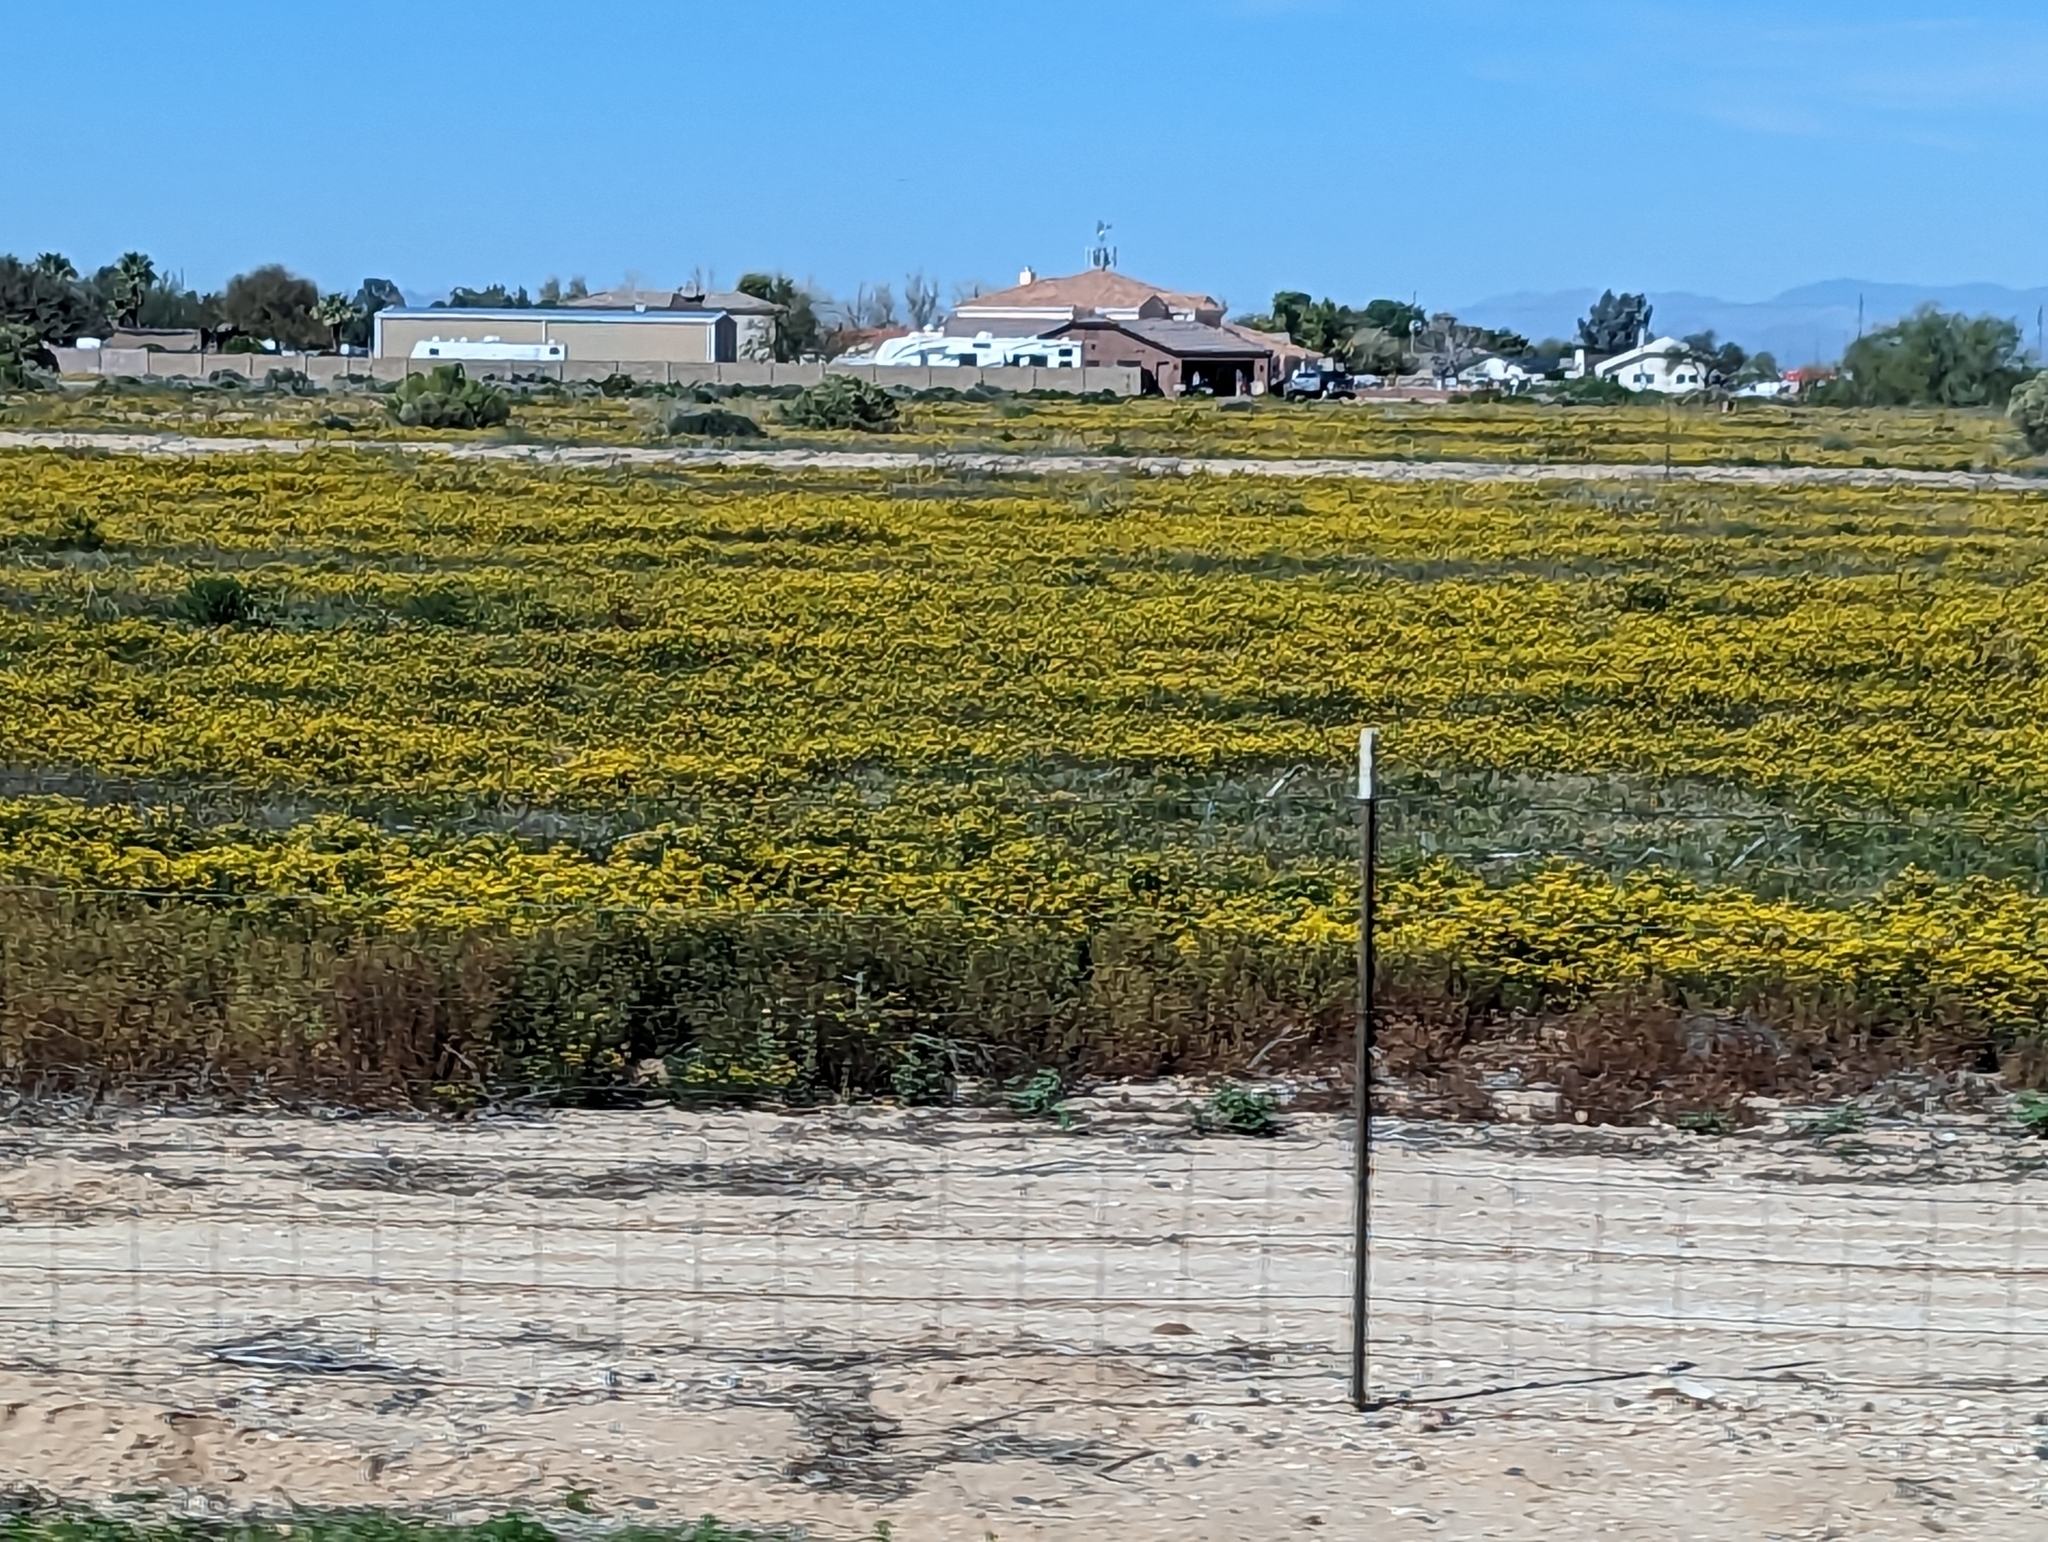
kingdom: Plantae
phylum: Tracheophyta
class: Magnoliopsida
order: Asterales
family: Asteraceae
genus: Oncosiphon
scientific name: Oncosiphon pilulifer
